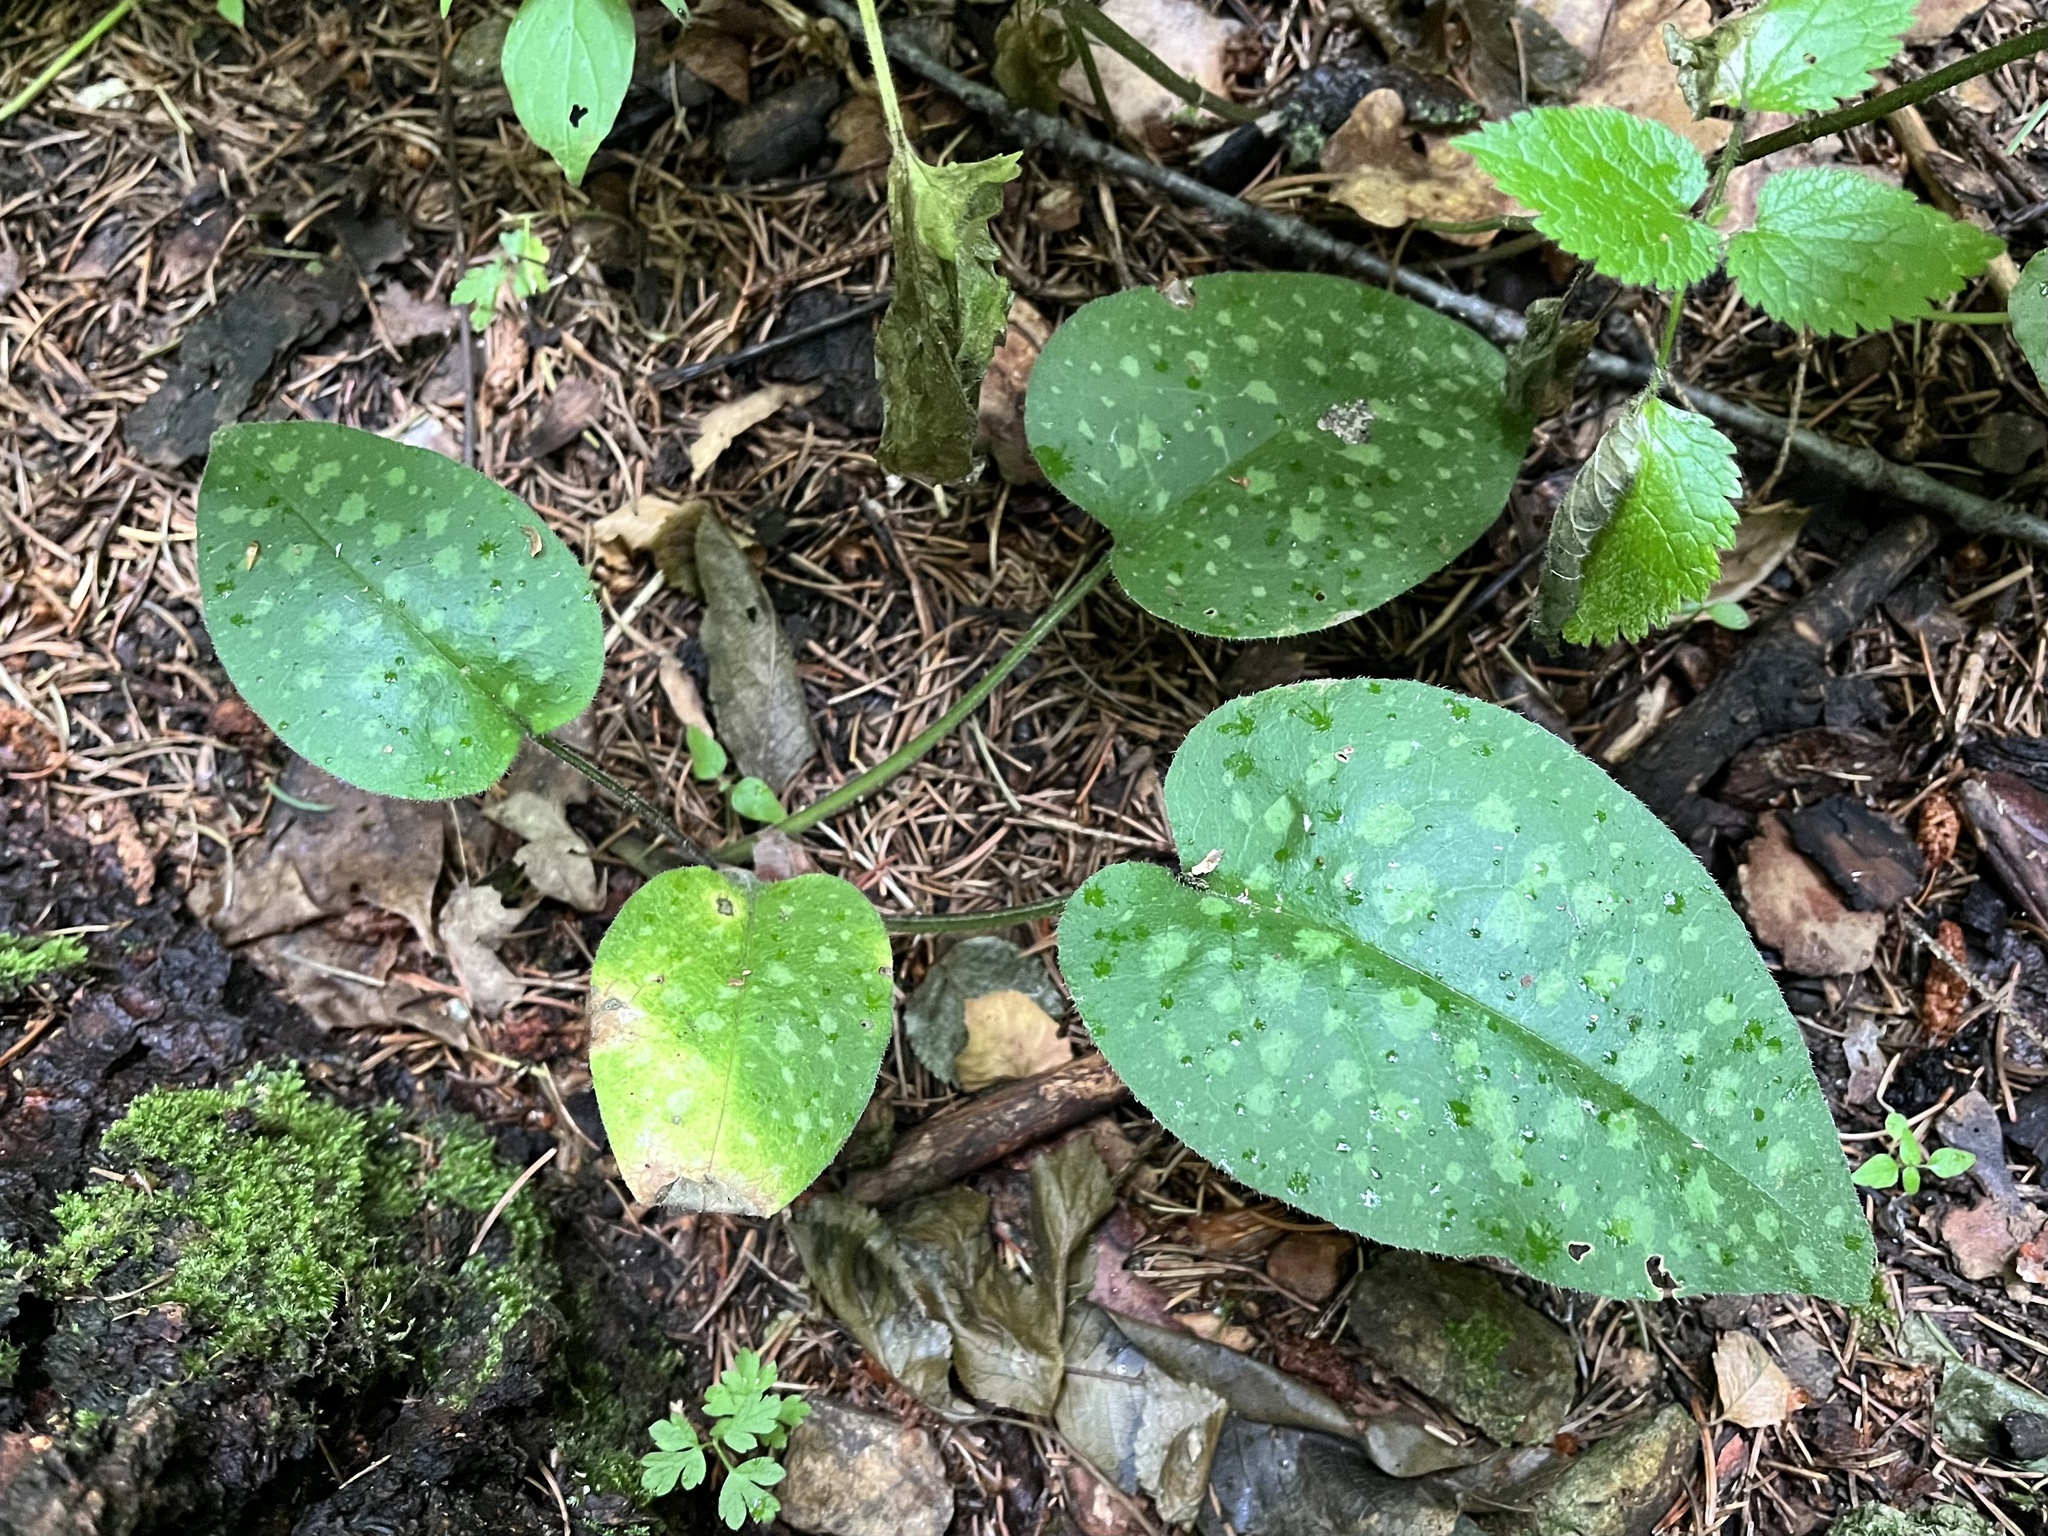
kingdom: Plantae
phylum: Tracheophyta
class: Magnoliopsida
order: Boraginales
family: Boraginaceae
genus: Pulmonaria
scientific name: Pulmonaria officinalis
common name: Lungwort
